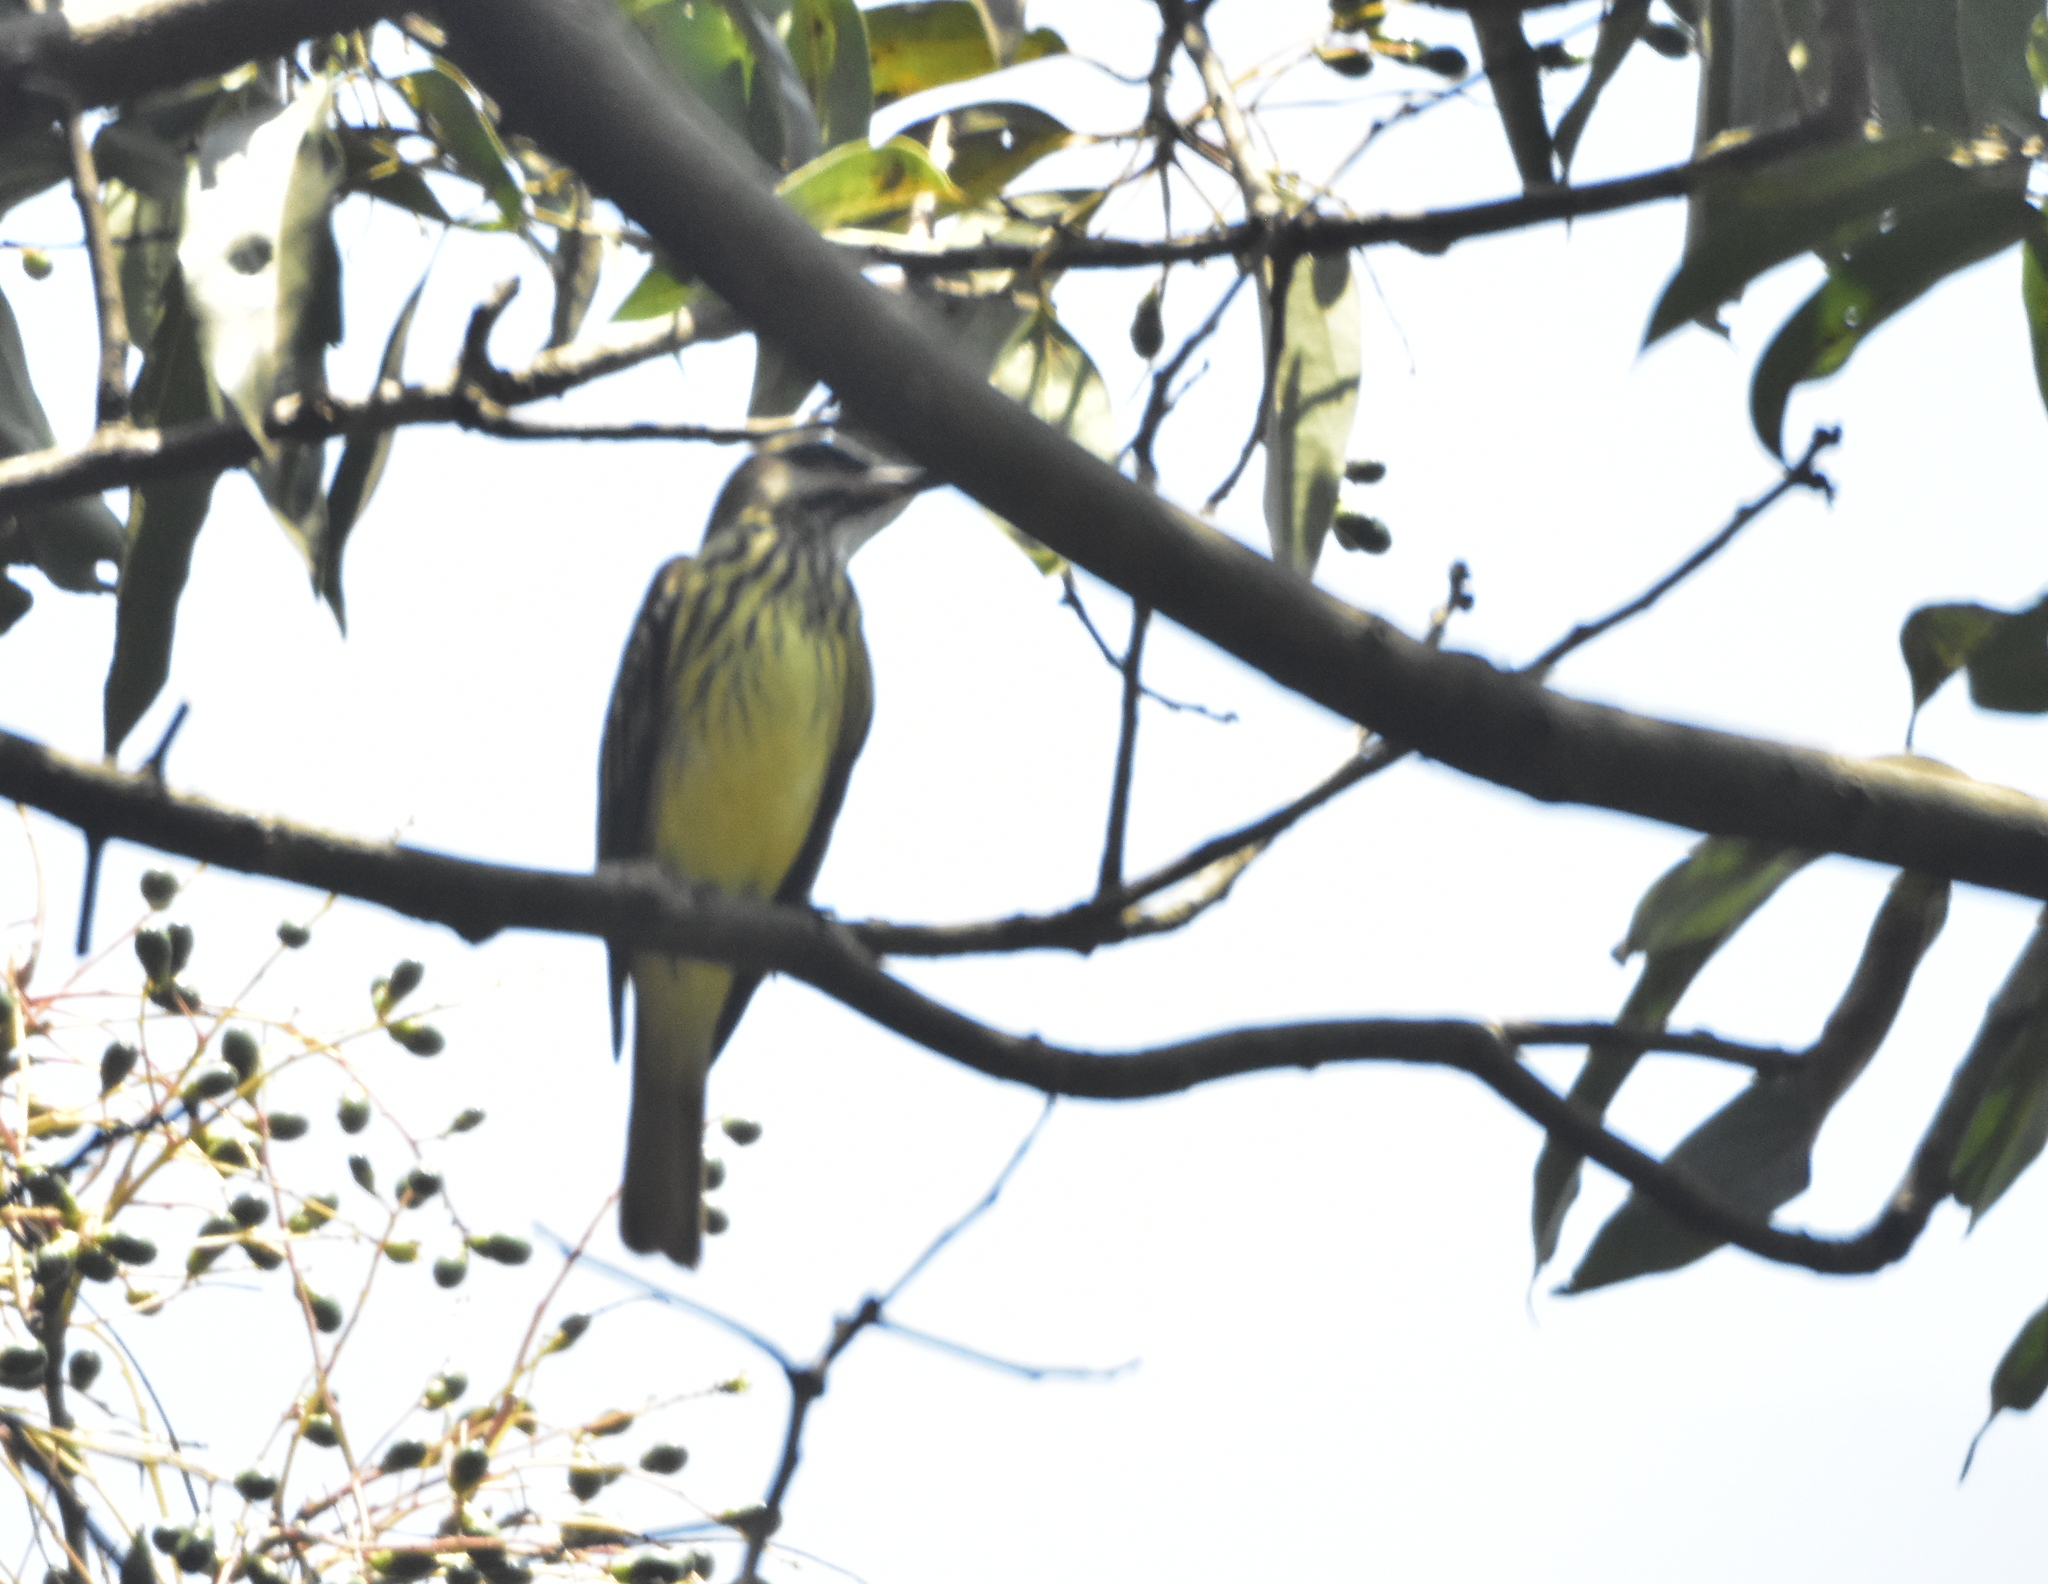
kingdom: Animalia
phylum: Chordata
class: Aves
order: Passeriformes
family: Tyrannidae
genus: Myiodynastes
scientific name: Myiodynastes luteiventris
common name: Sulphur-bellied flycatcher
